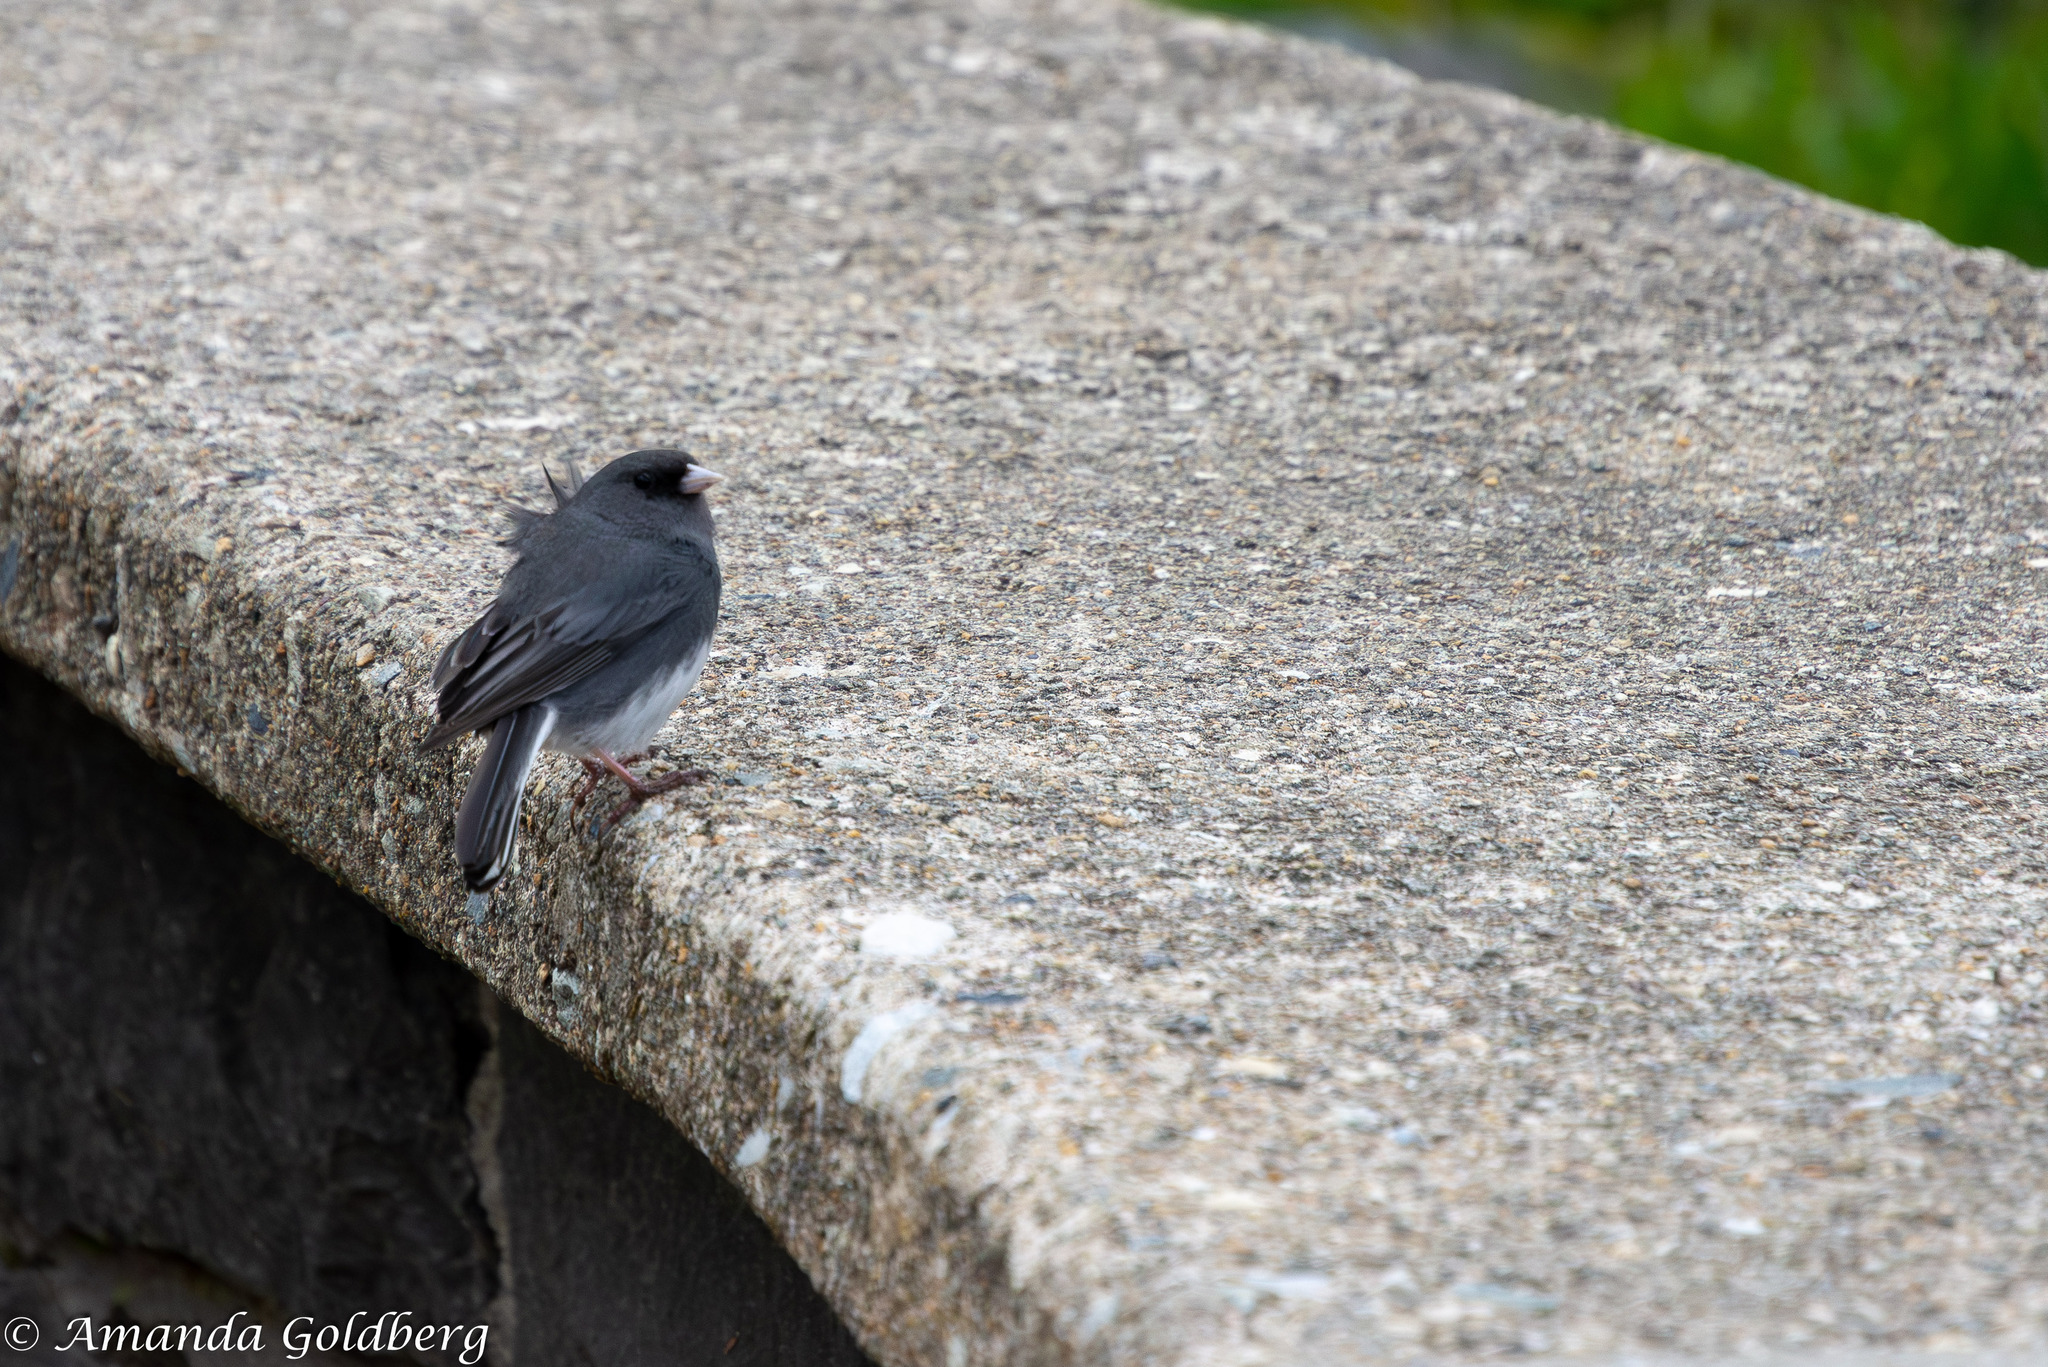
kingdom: Animalia
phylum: Chordata
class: Aves
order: Passeriformes
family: Passerellidae
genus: Junco
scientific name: Junco hyemalis
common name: Dark-eyed junco
